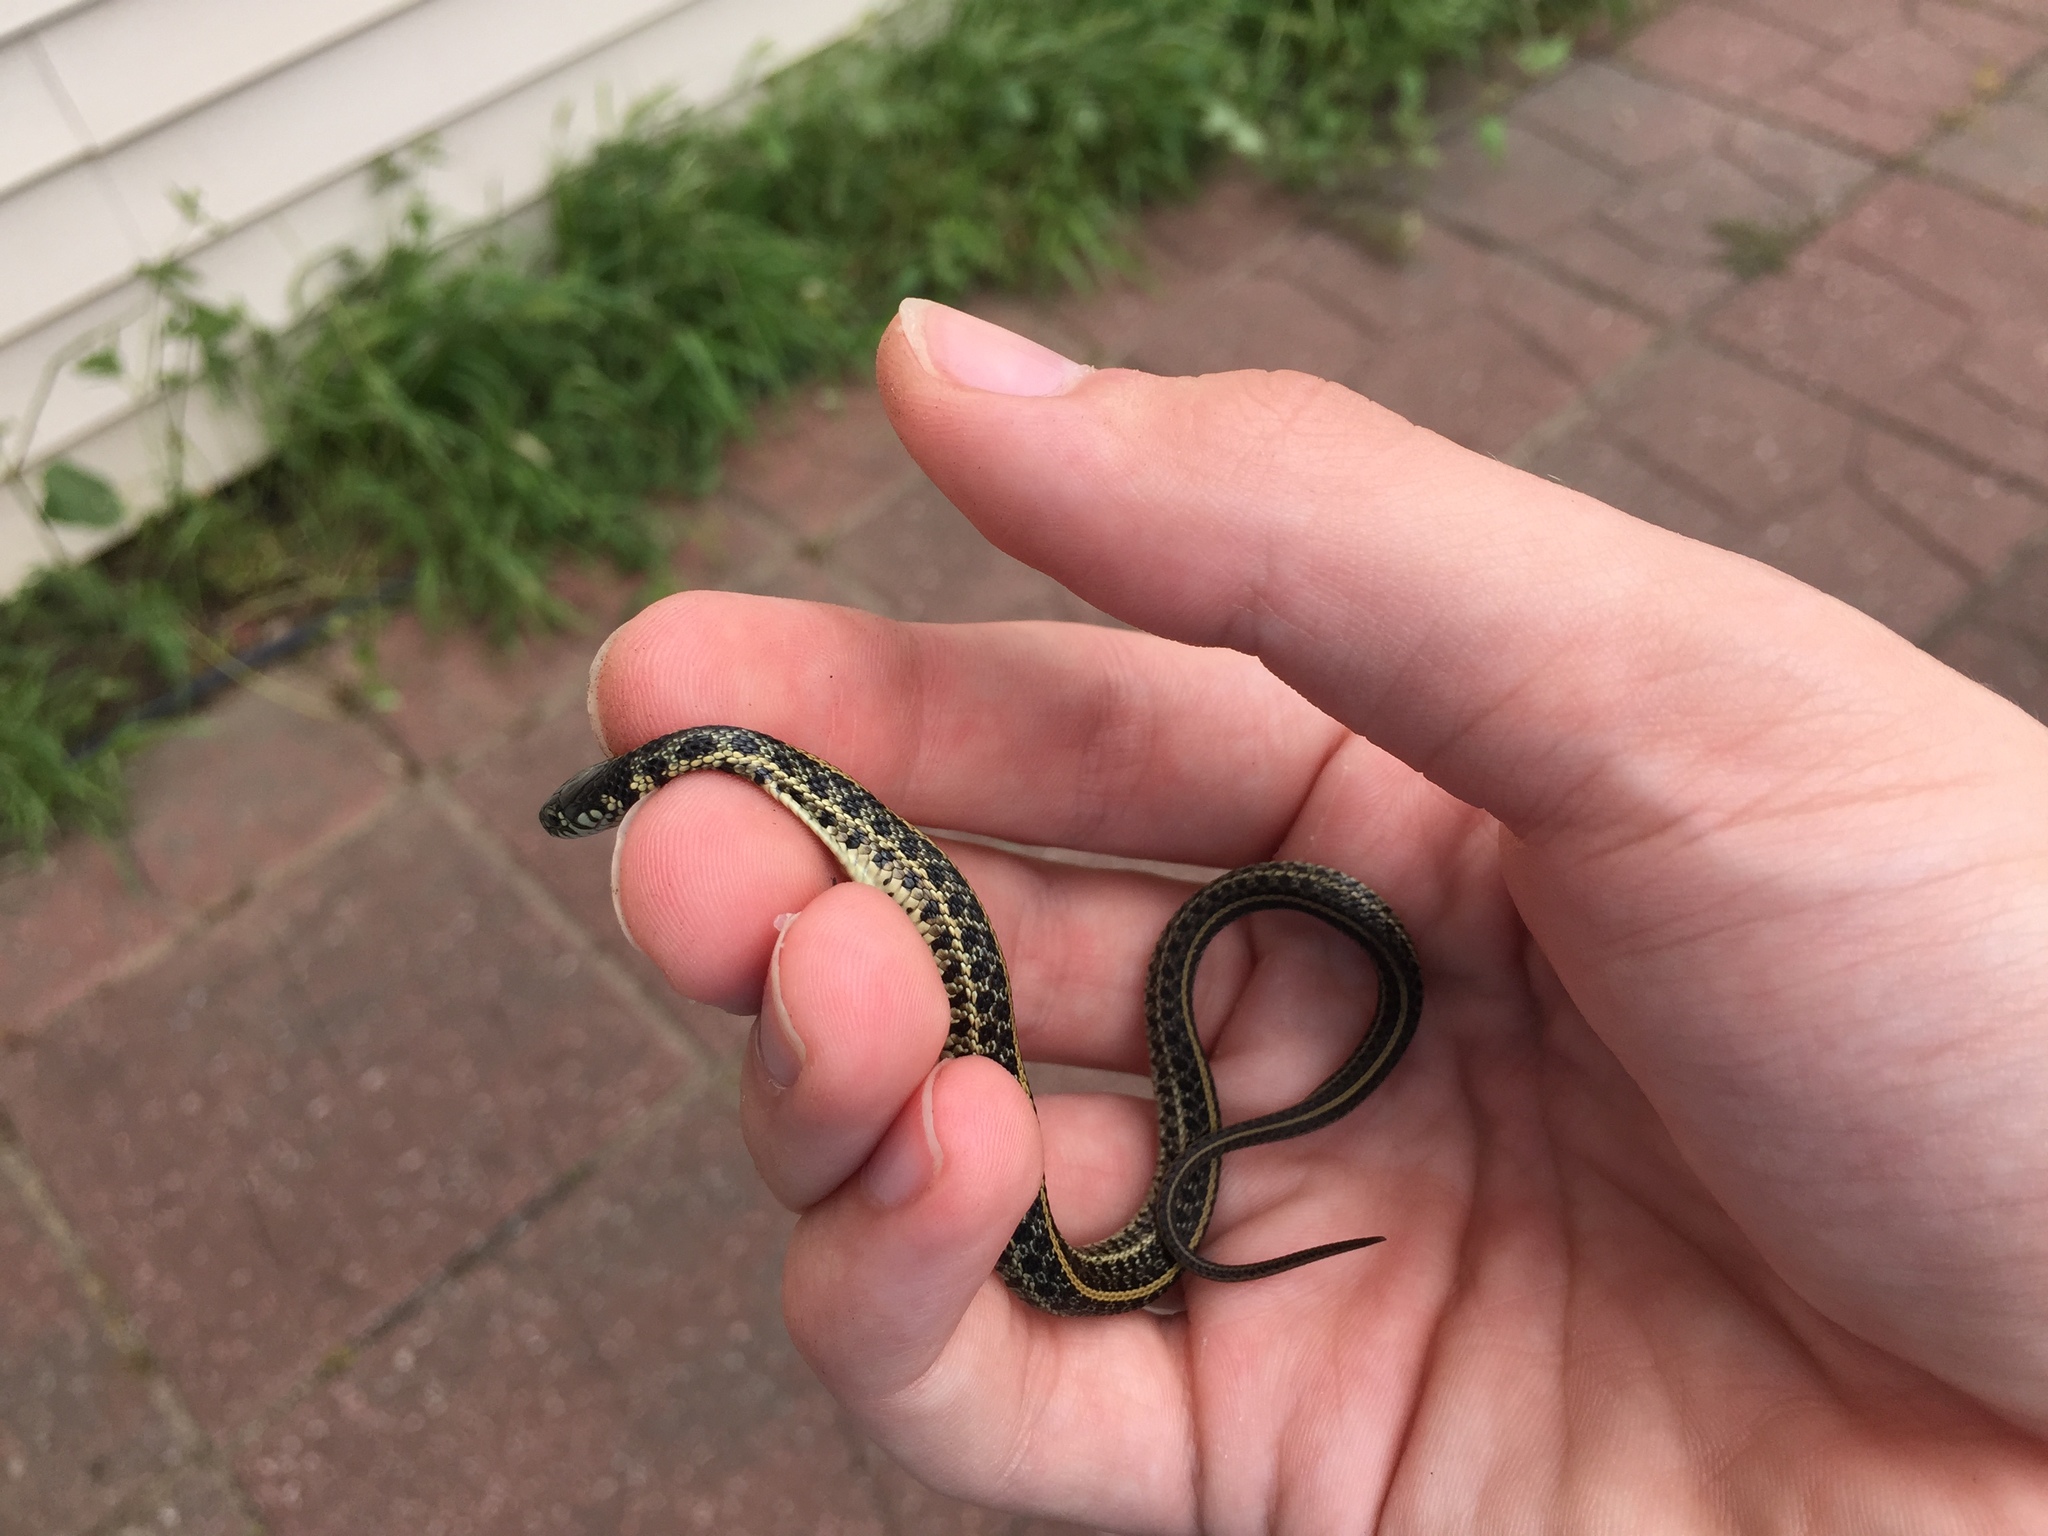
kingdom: Animalia
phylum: Chordata
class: Squamata
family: Colubridae
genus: Thamnophis
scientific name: Thamnophis radix
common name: Plains garter snake
